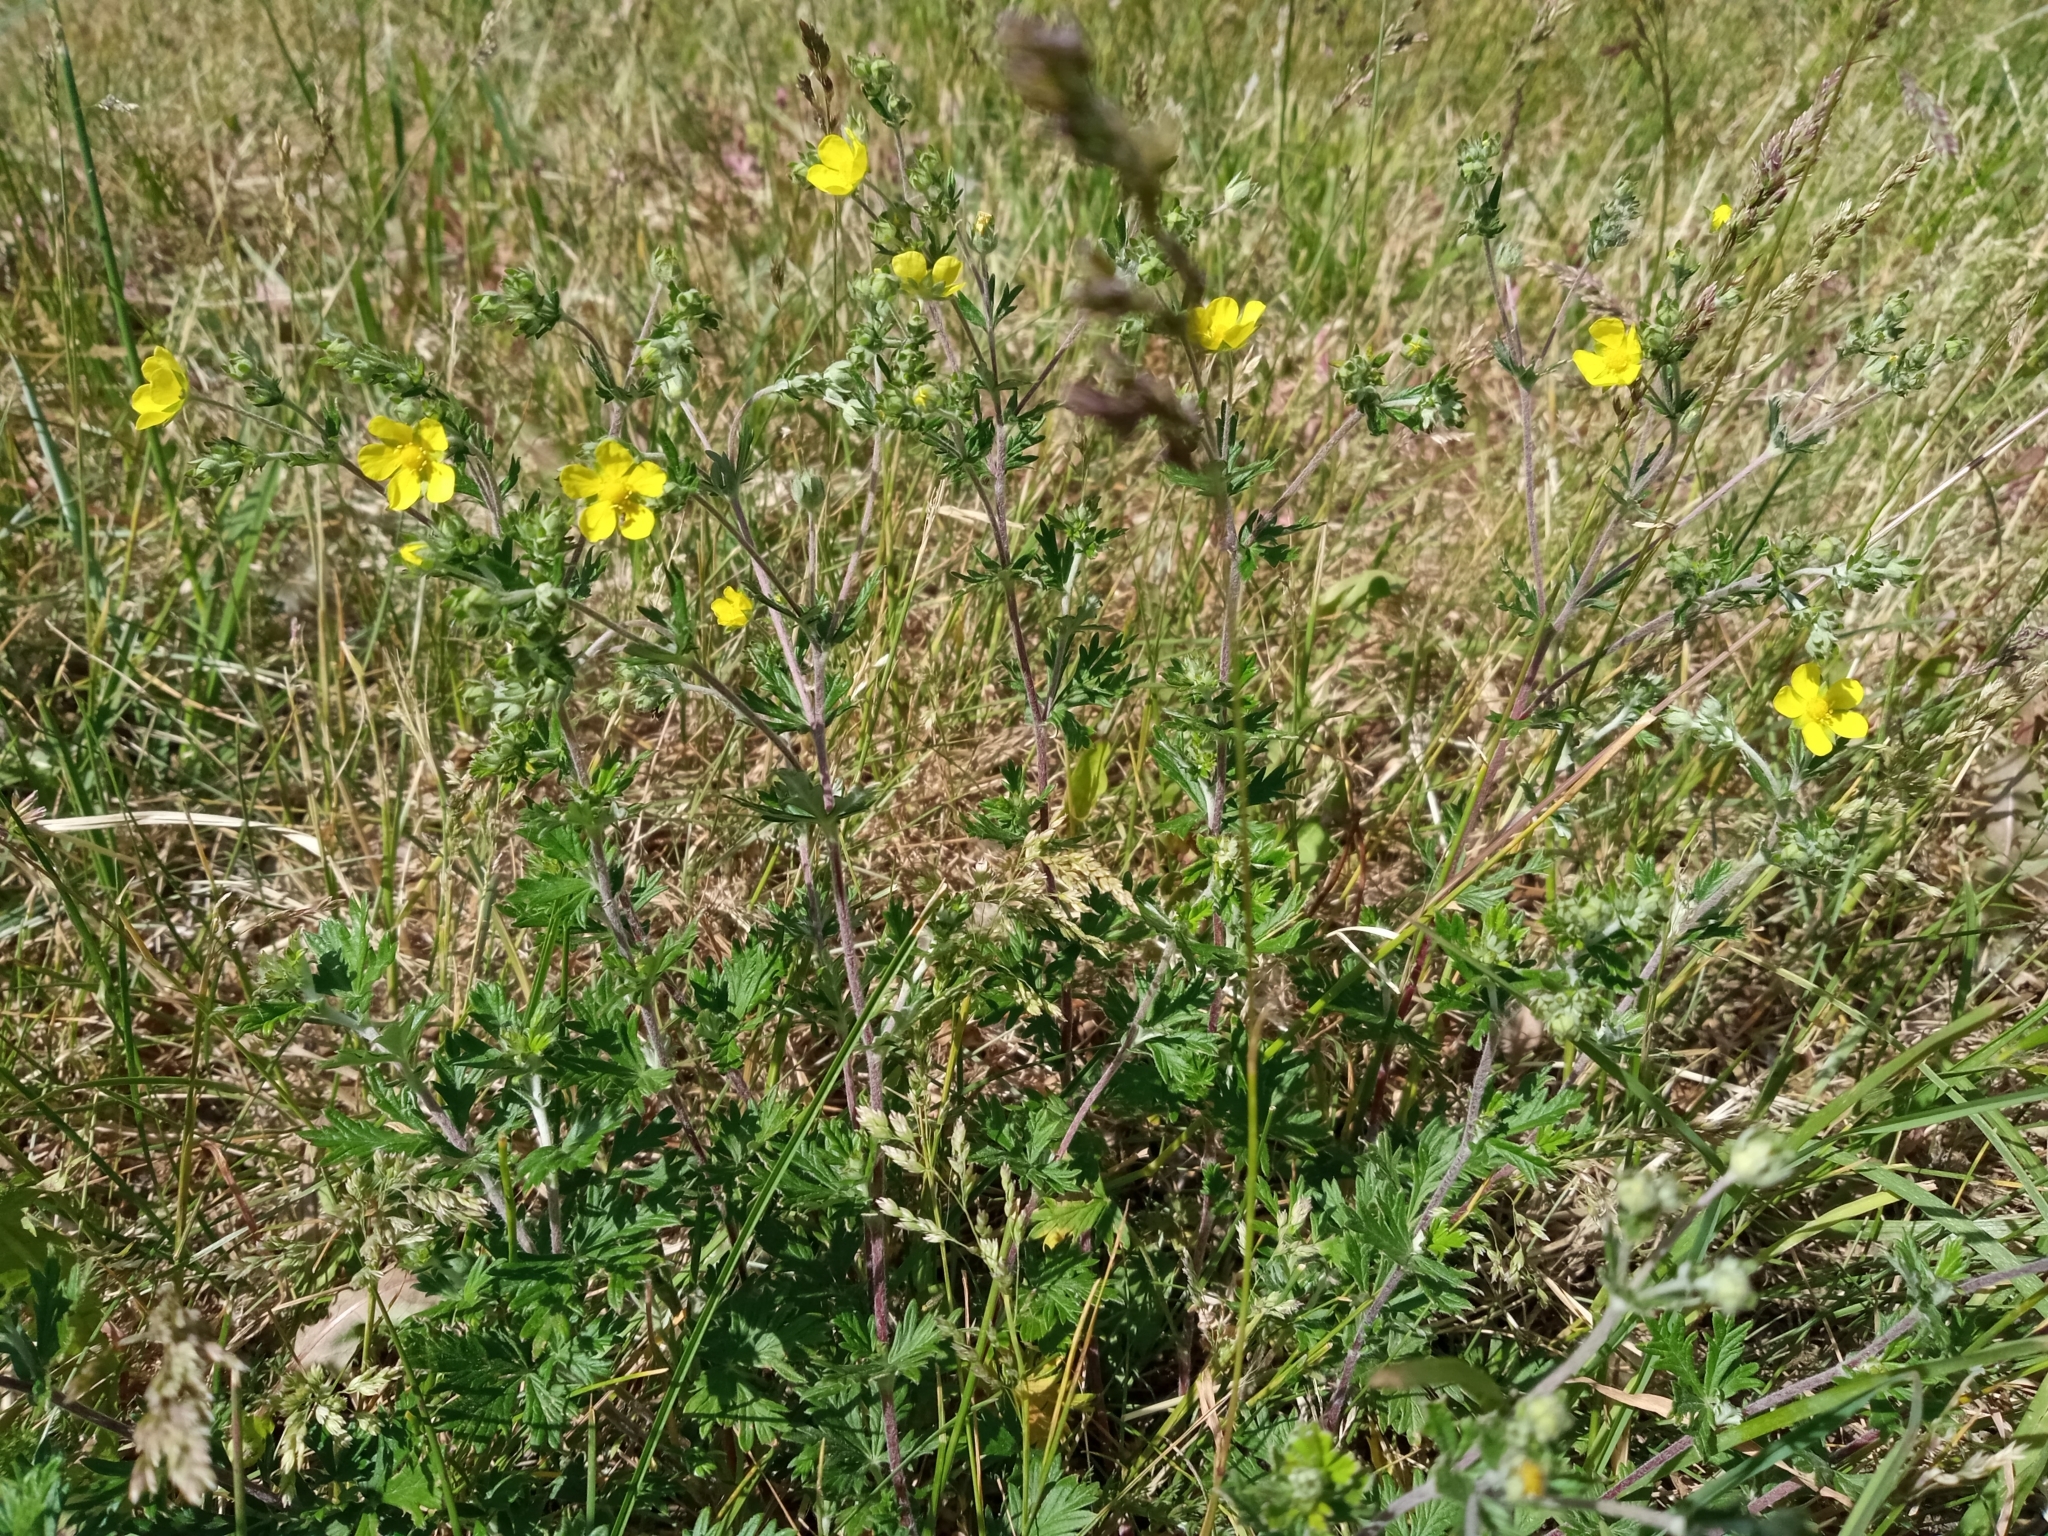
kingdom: Plantae
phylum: Tracheophyta
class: Magnoliopsida
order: Rosales
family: Rosaceae
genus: Potentilla
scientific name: Potentilla argentea
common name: Hoary cinquefoil
